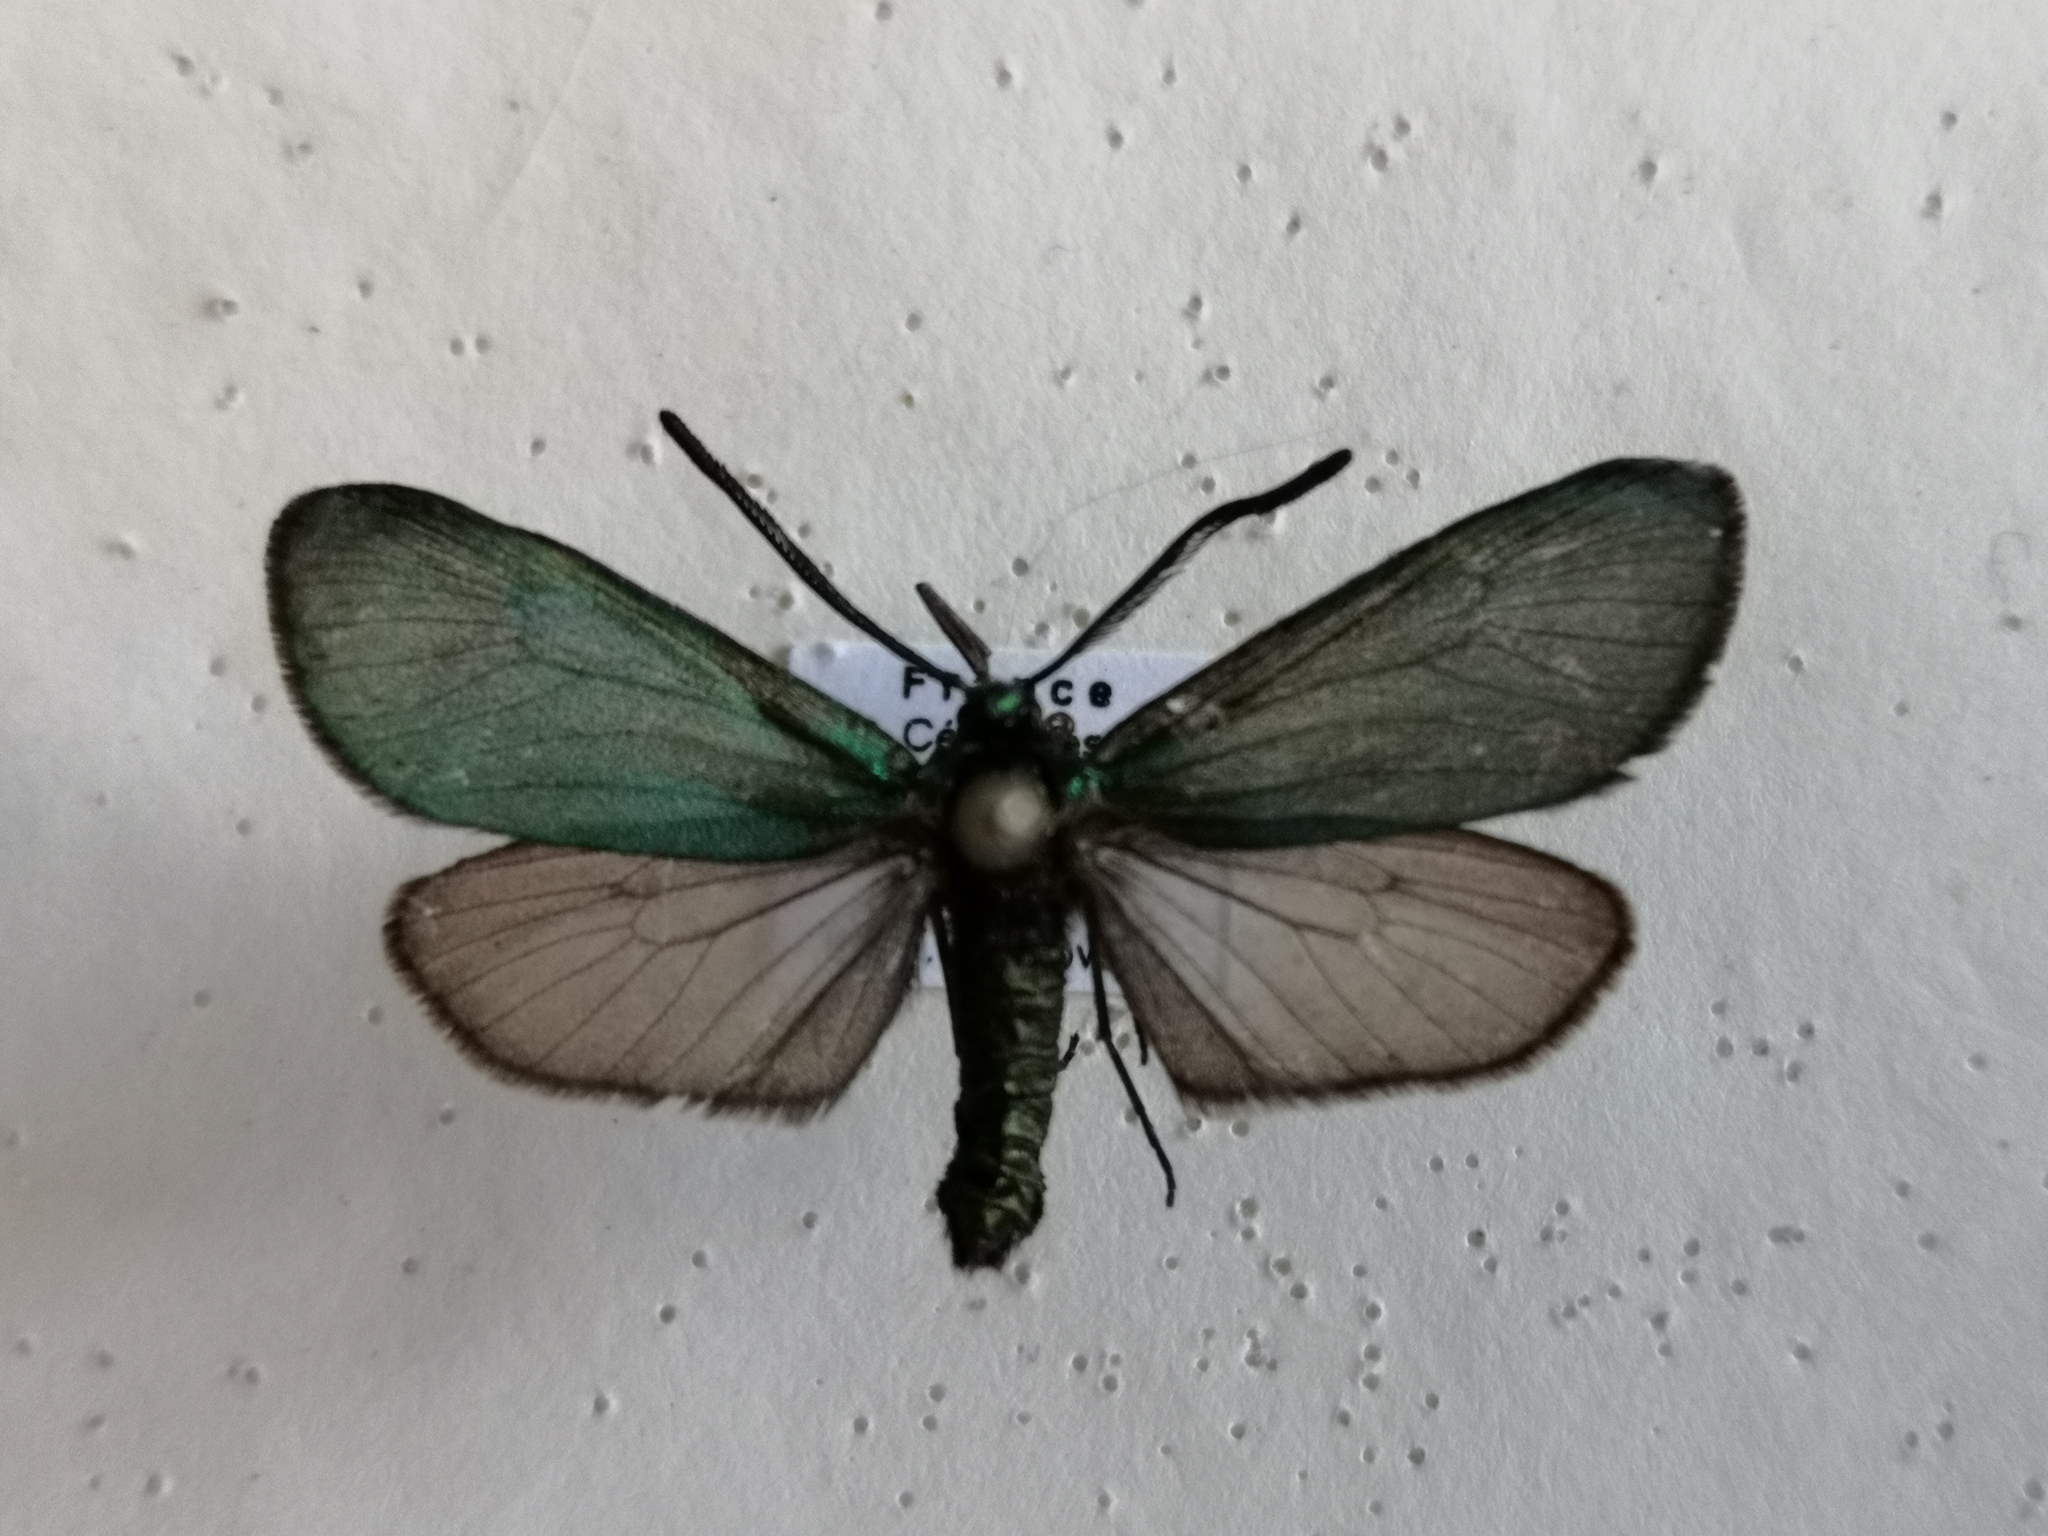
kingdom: Animalia
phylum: Arthropoda
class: Insecta
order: Lepidoptera
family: Zygaenidae
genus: Adscita
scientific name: Adscita statices
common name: Forester
